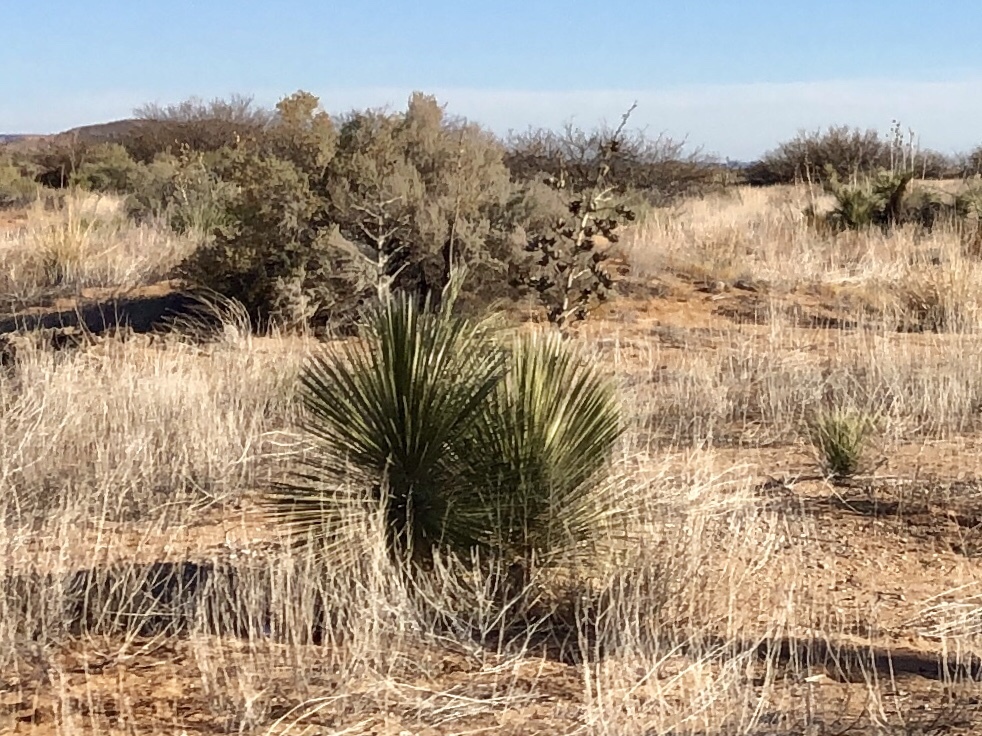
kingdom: Plantae
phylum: Tracheophyta
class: Liliopsida
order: Asparagales
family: Asparagaceae
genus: Yucca
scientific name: Yucca elata
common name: Palmella
